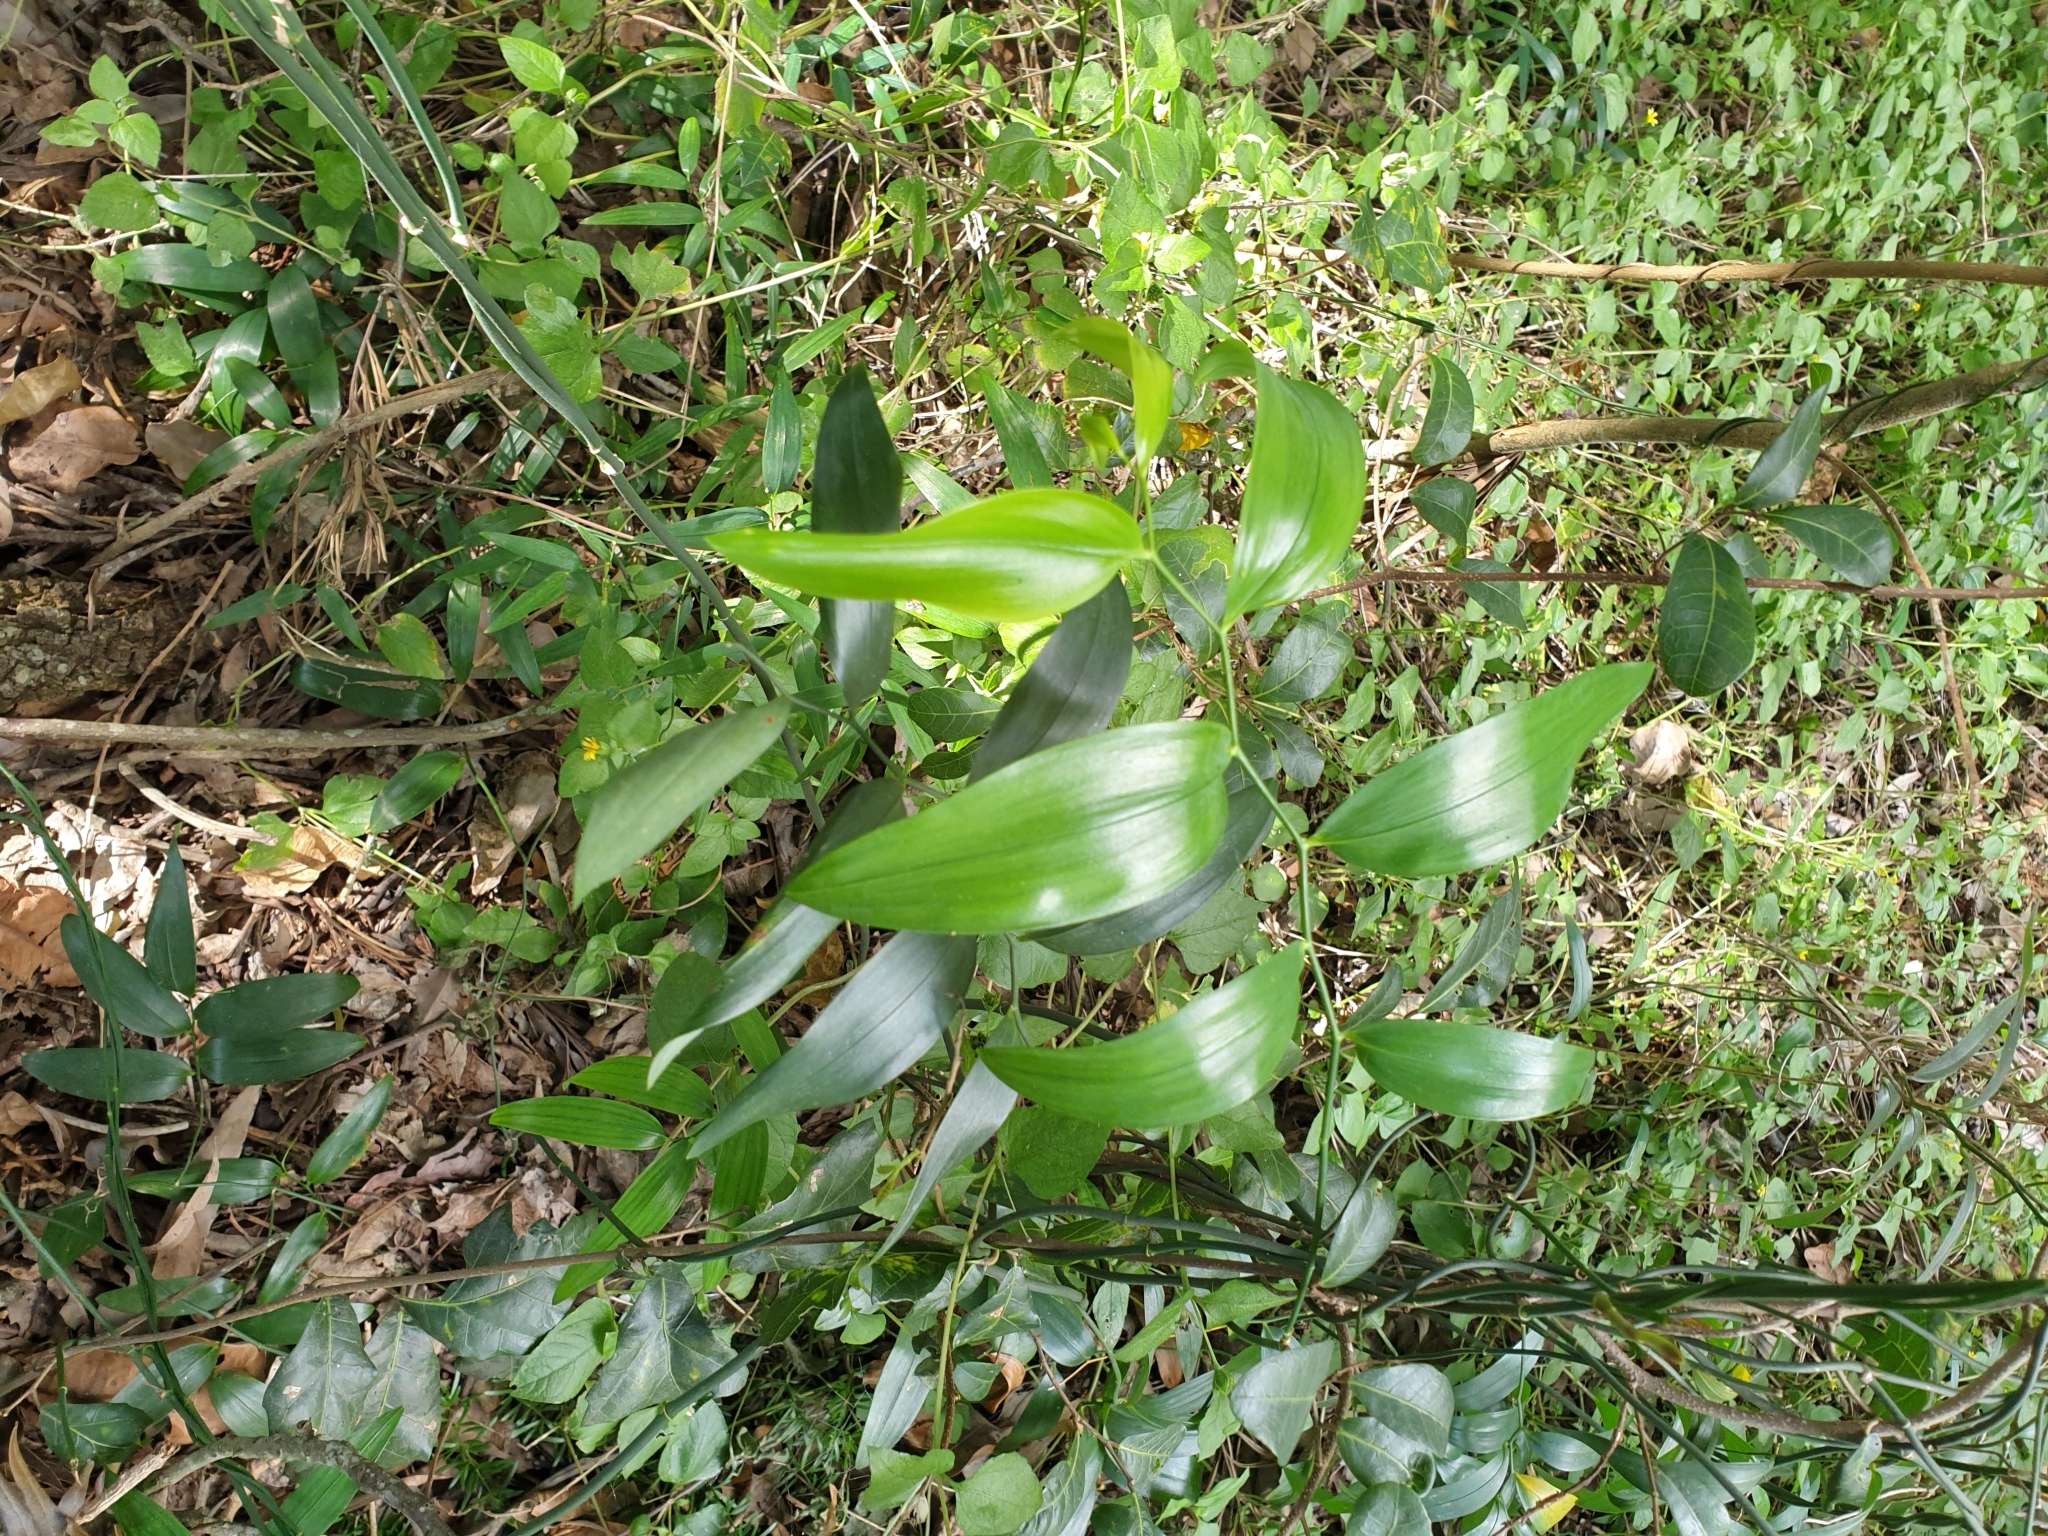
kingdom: Plantae
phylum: Tracheophyta
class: Liliopsida
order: Asparagales
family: Asphodelaceae
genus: Geitonoplesium
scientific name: Geitonoplesium cymosum
